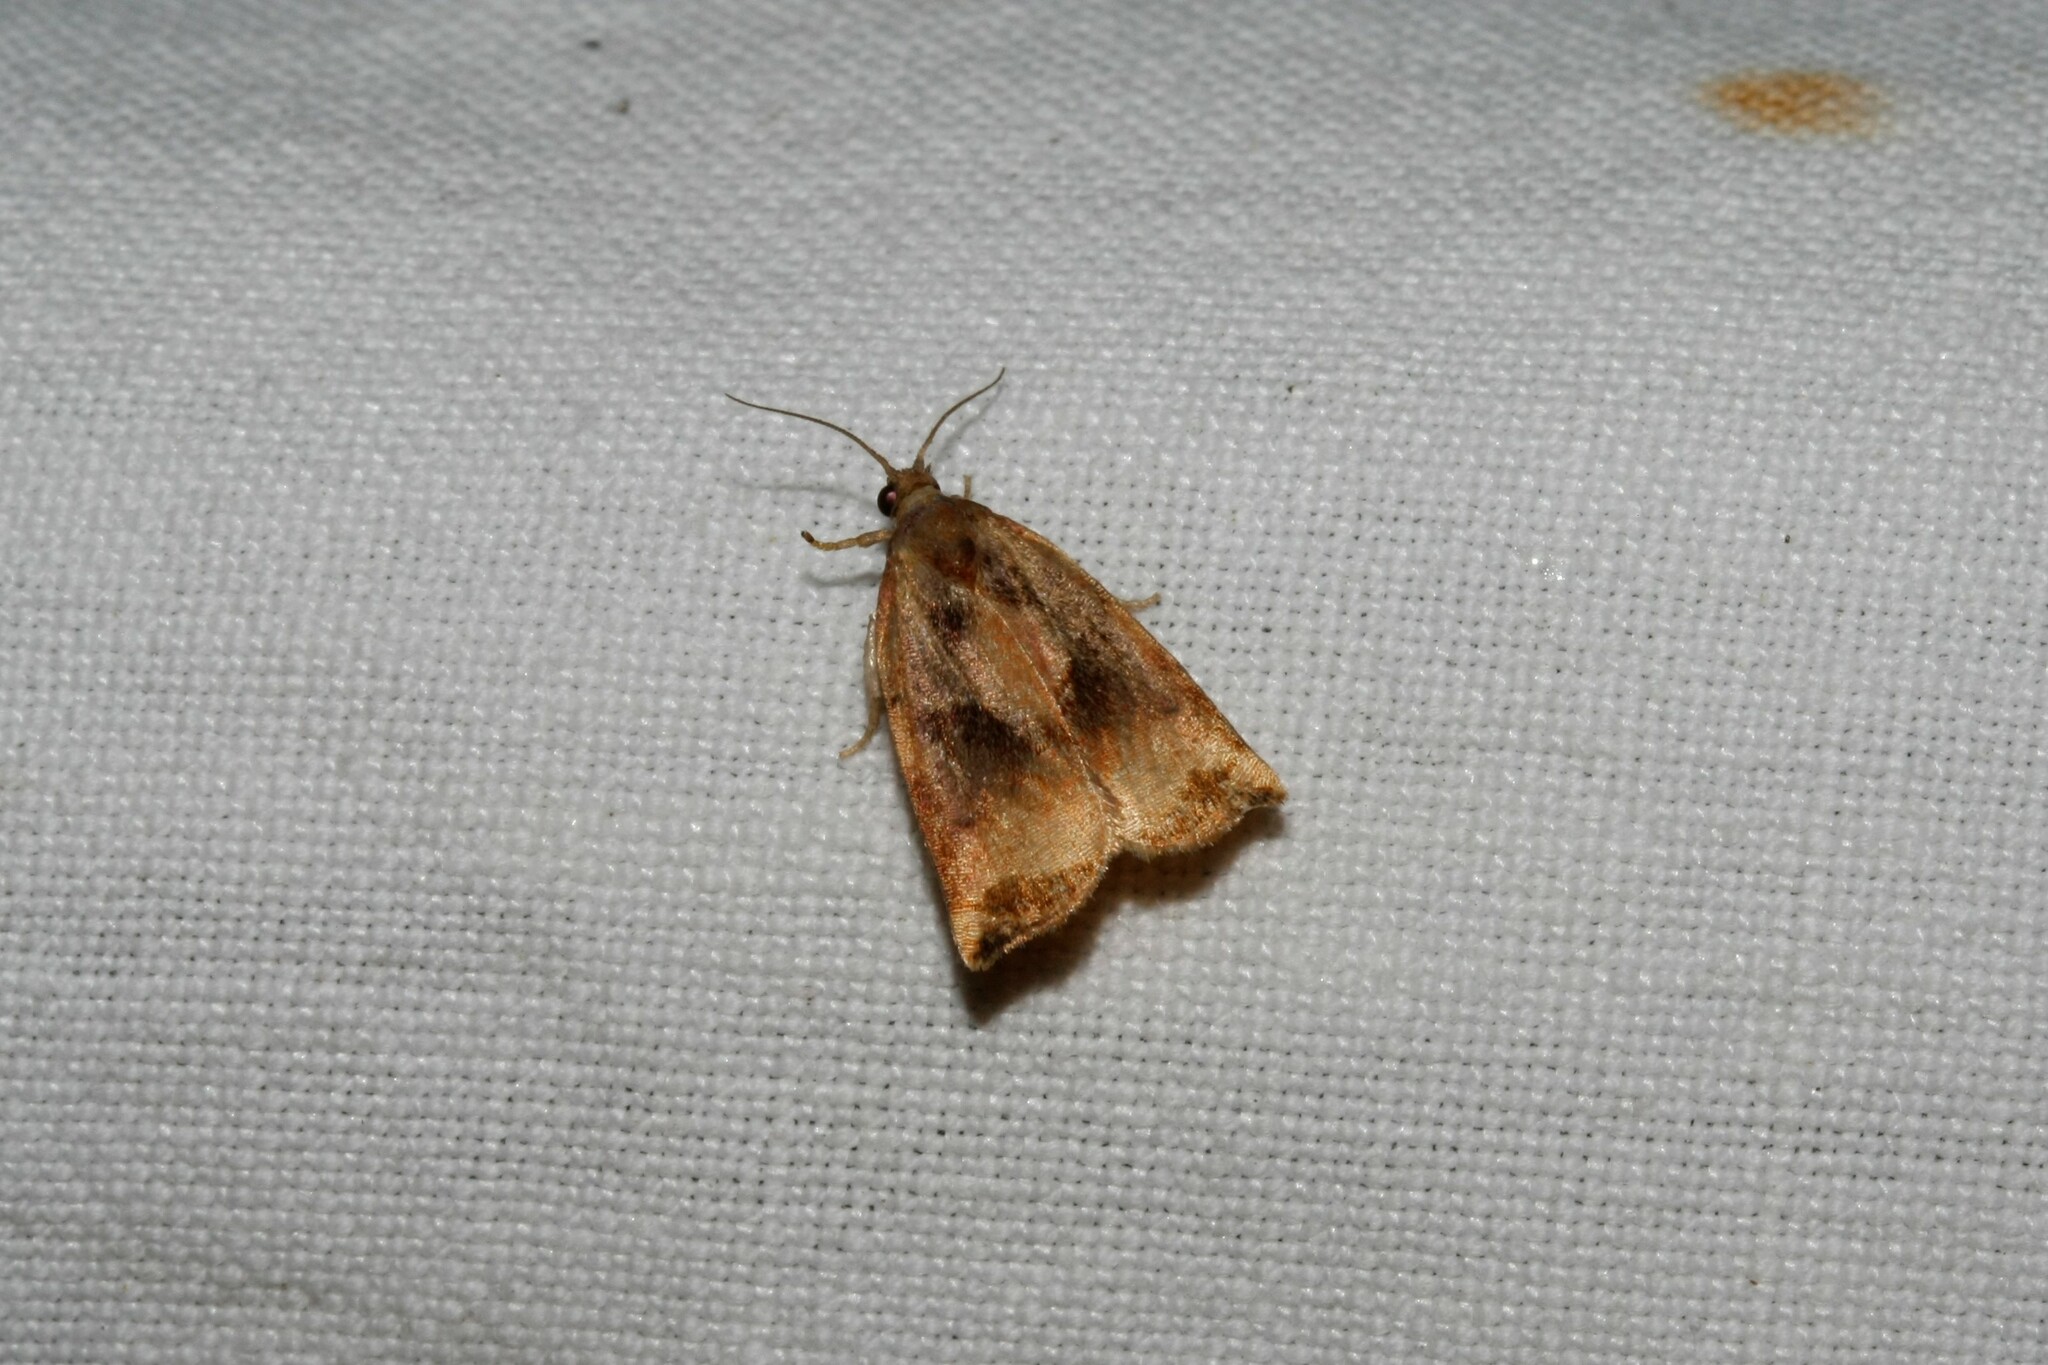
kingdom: Animalia
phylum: Arthropoda
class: Insecta
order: Lepidoptera
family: Tortricidae
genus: Archips
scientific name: Archips podana
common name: Large fruit-tree tortrix
